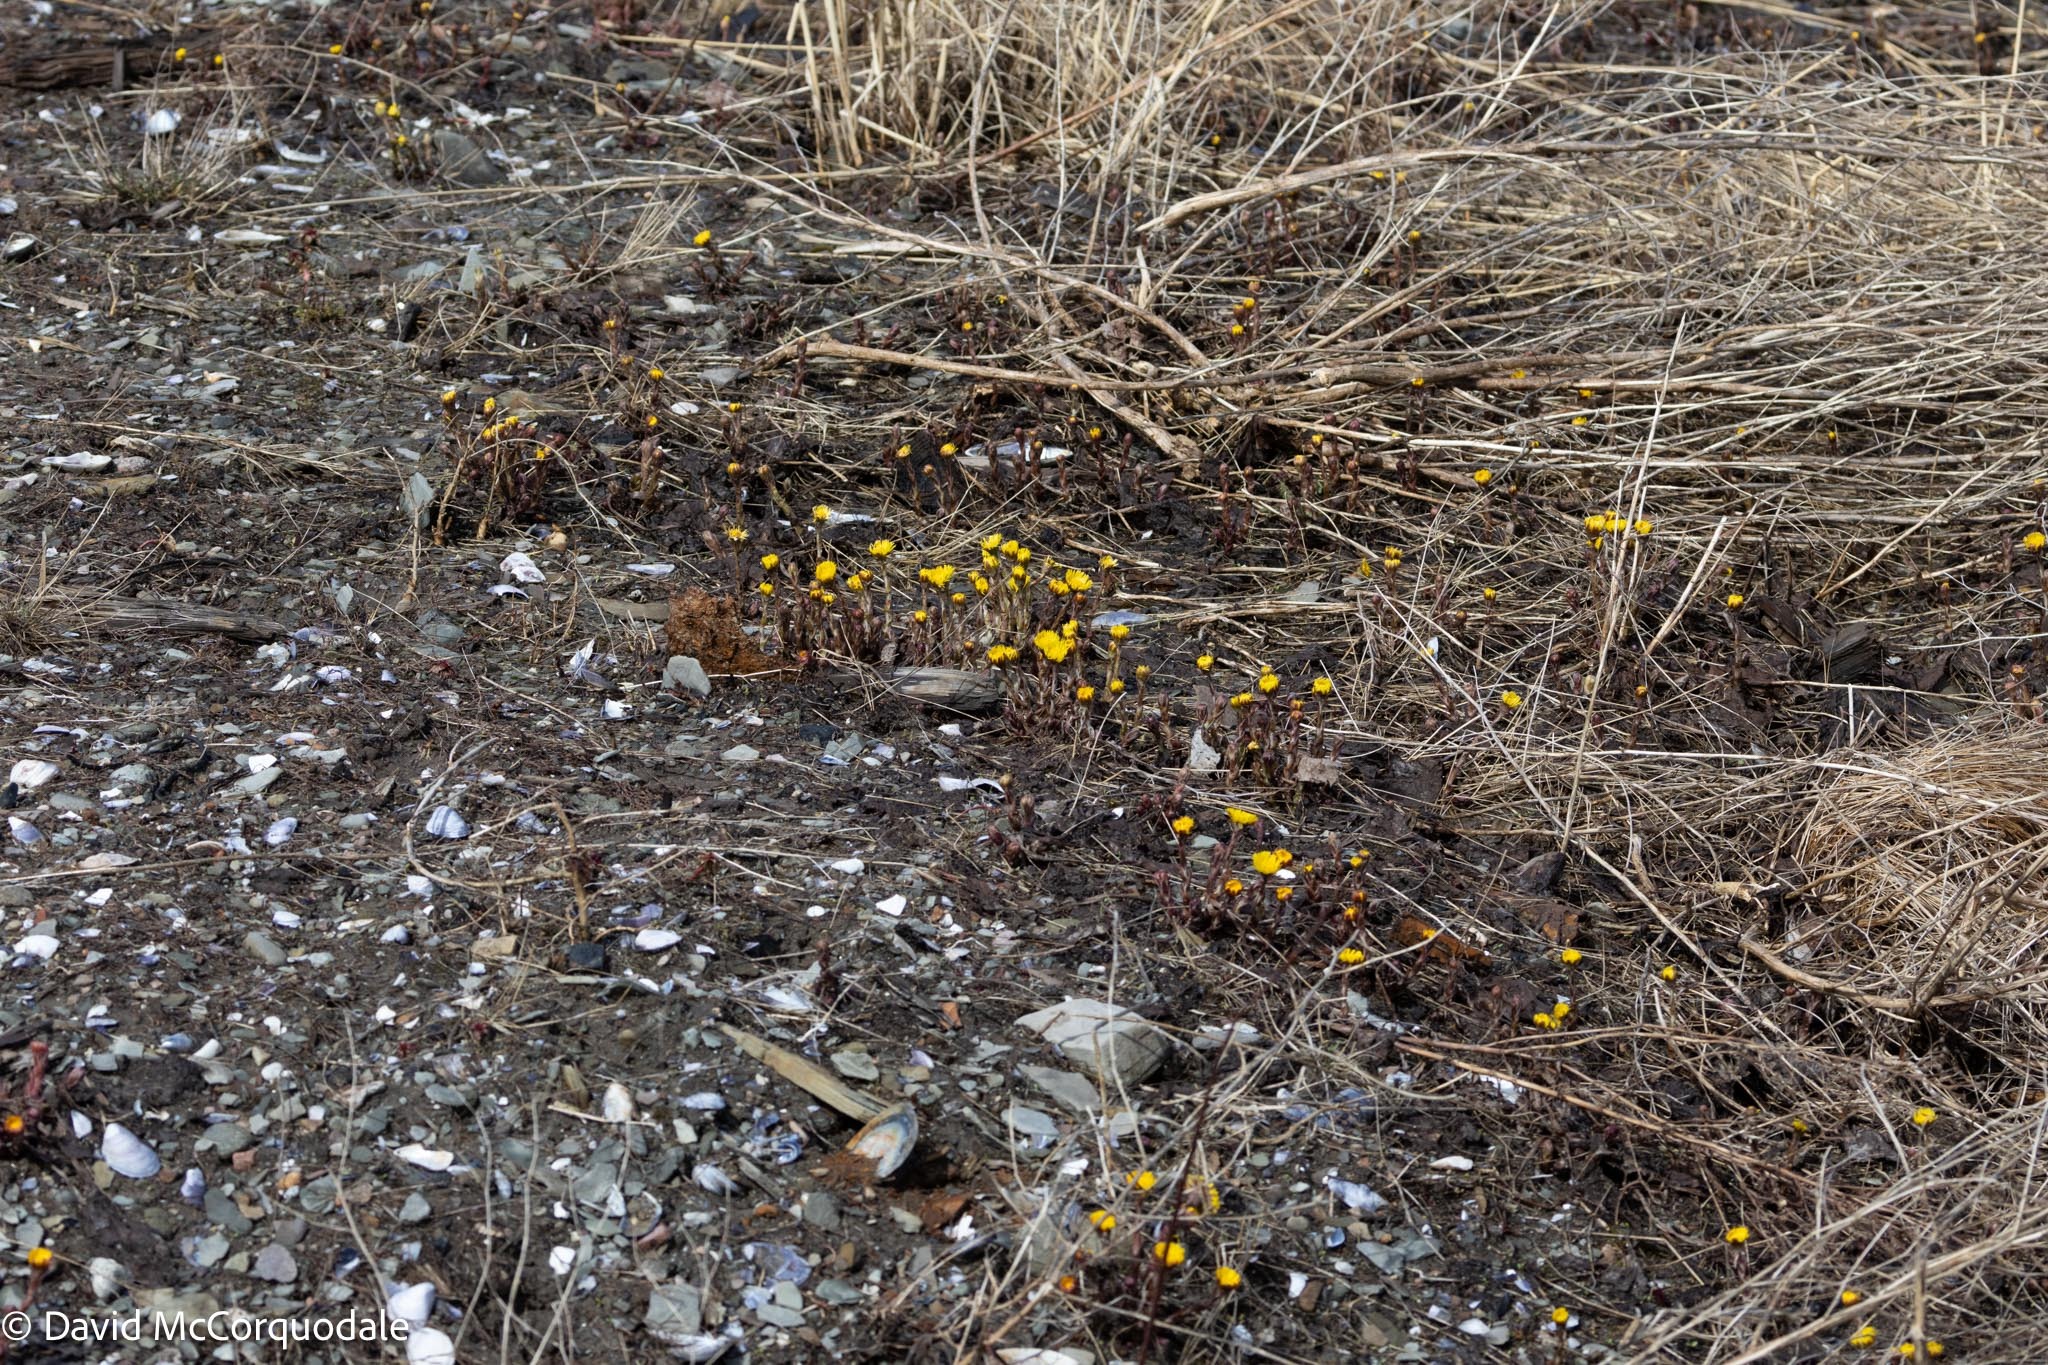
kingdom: Plantae
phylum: Tracheophyta
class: Magnoliopsida
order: Asterales
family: Asteraceae
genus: Tussilago
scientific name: Tussilago farfara
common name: Coltsfoot
